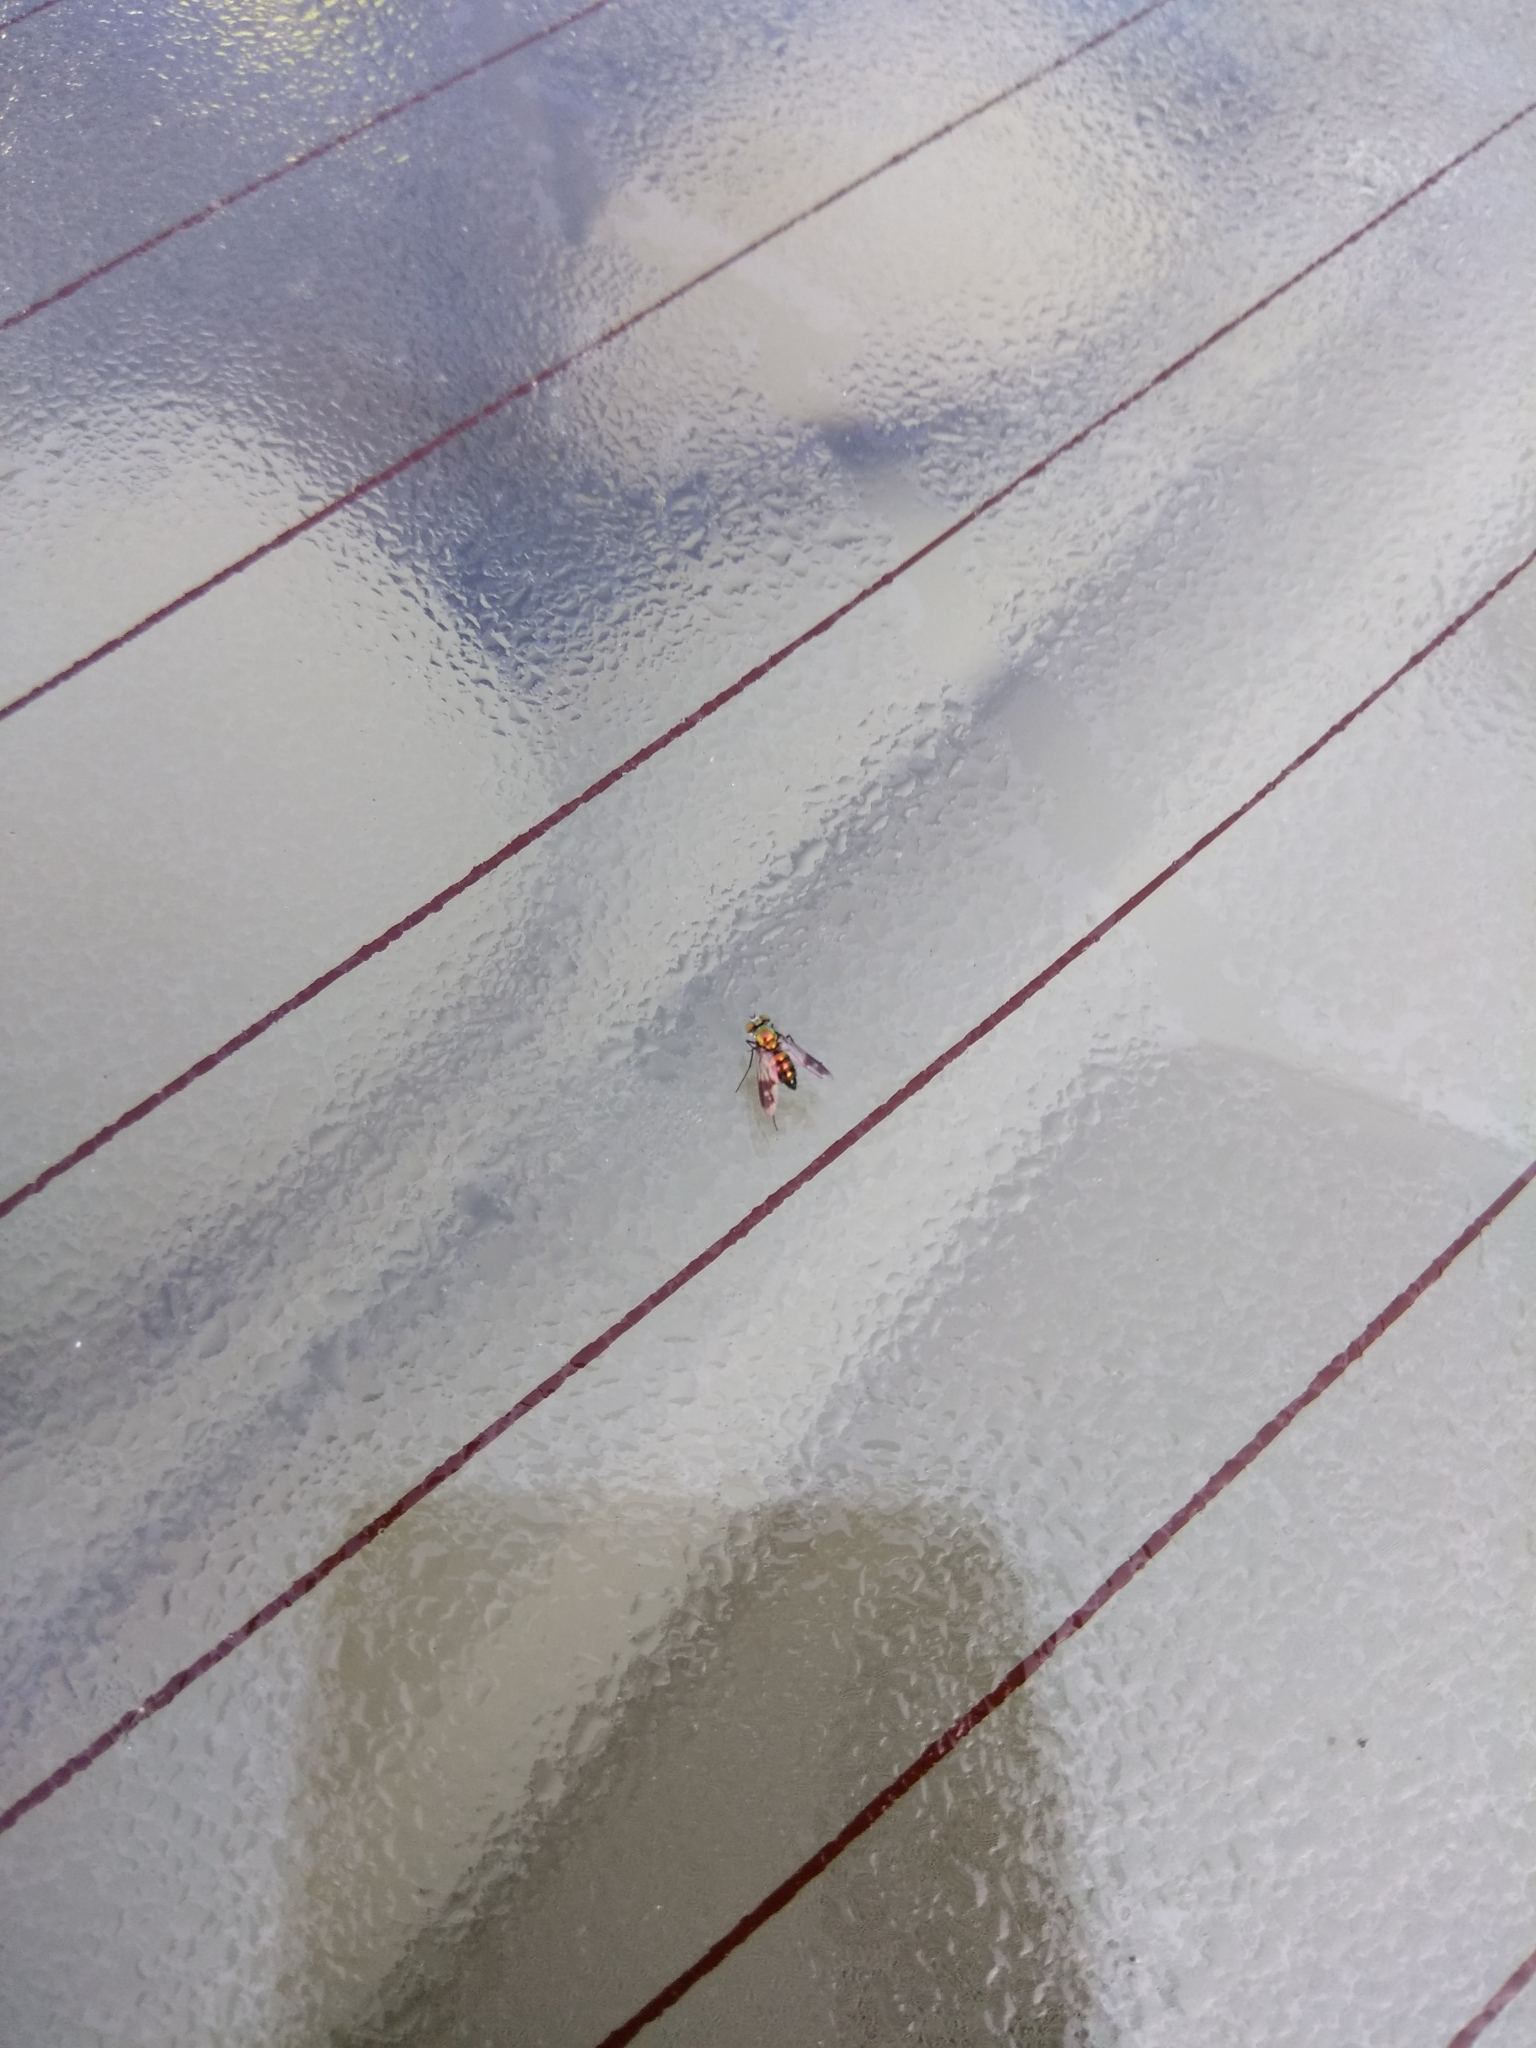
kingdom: Animalia
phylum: Arthropoda
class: Insecta
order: Diptera
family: Dolichopodidae
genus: Condylostylus
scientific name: Condylostylus patibulatus
